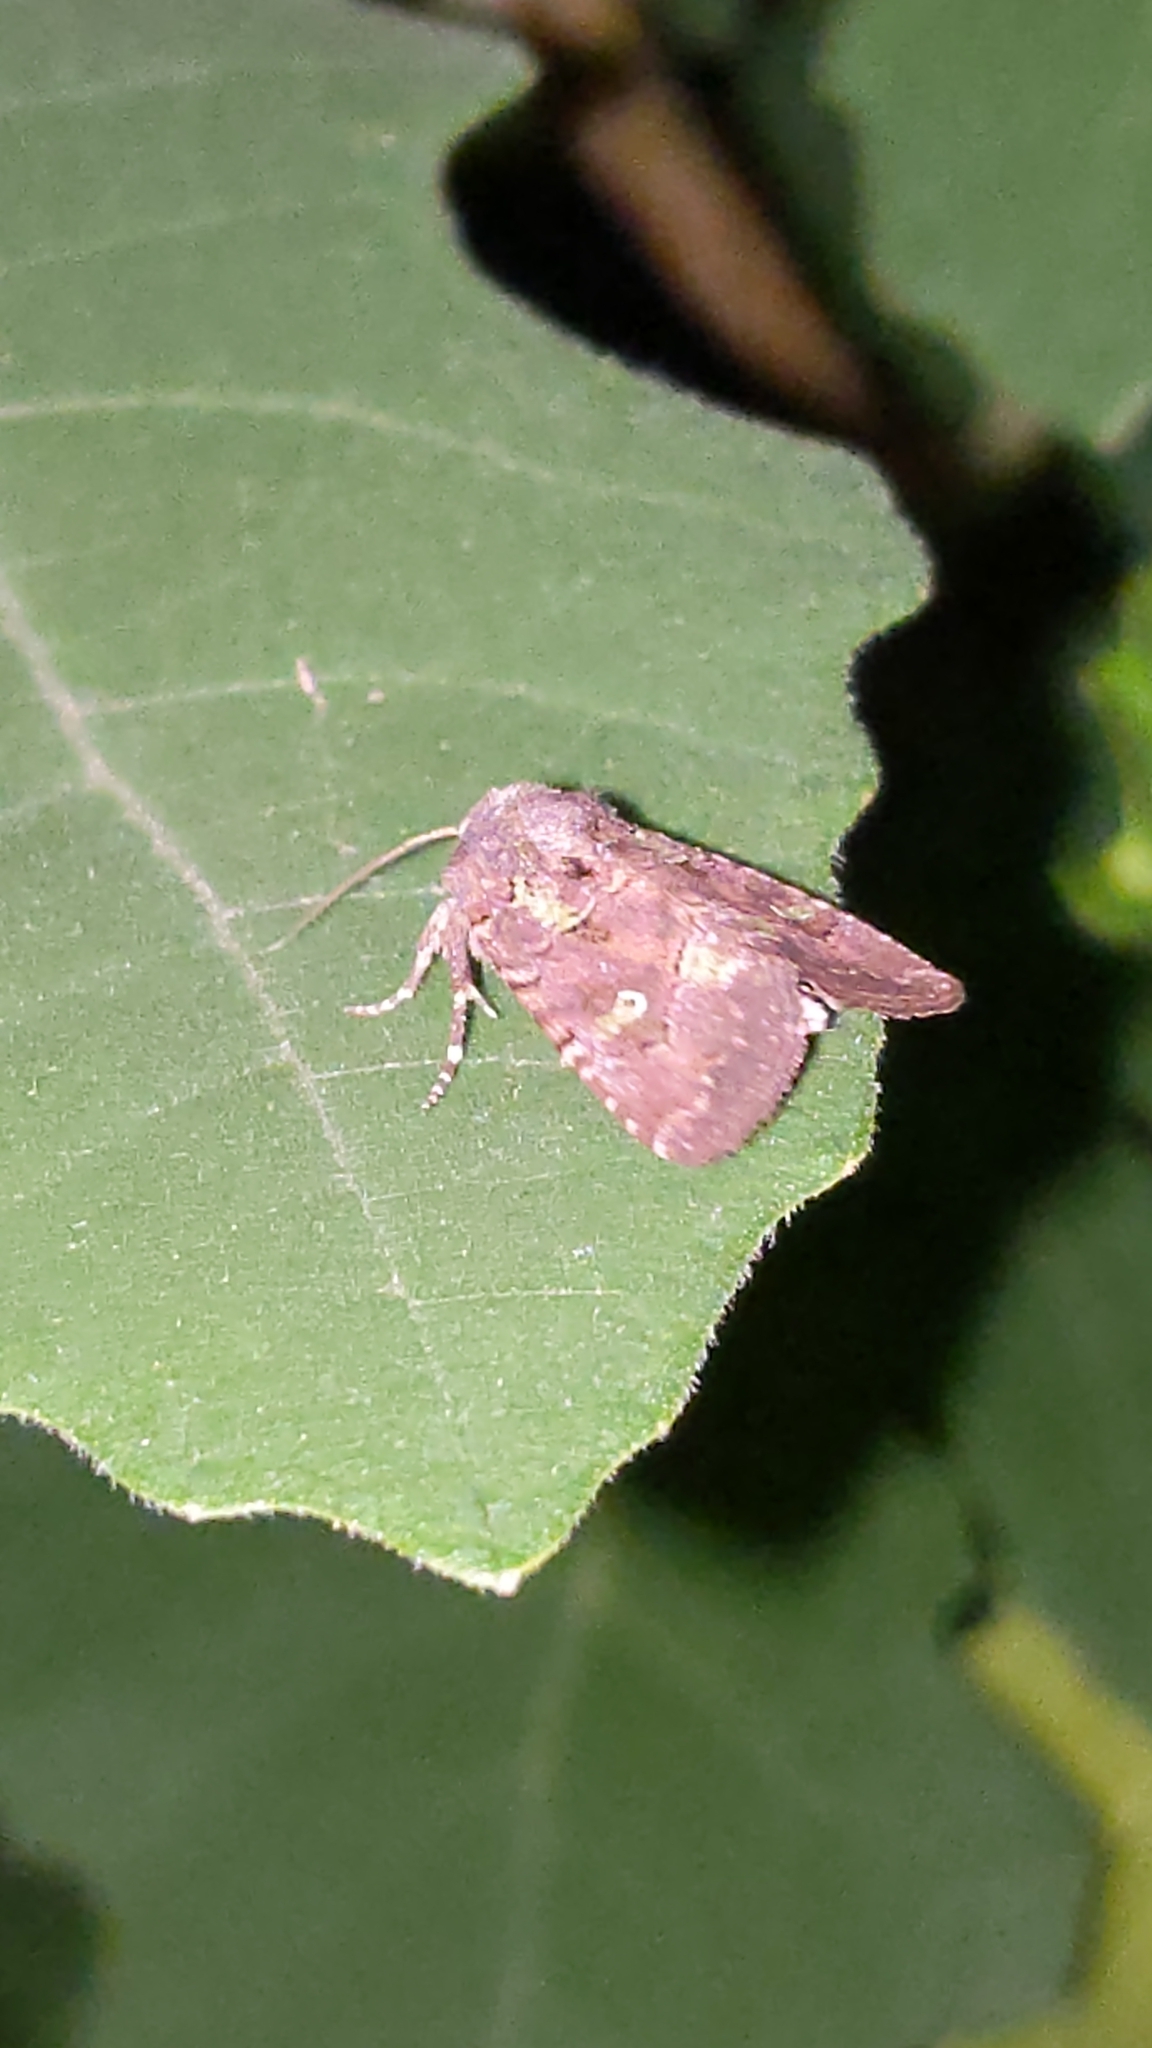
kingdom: Animalia
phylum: Arthropoda
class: Insecta
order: Lepidoptera
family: Noctuidae
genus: Lacinipolia
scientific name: Lacinipolia renigera
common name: Kidney-spotted minor
